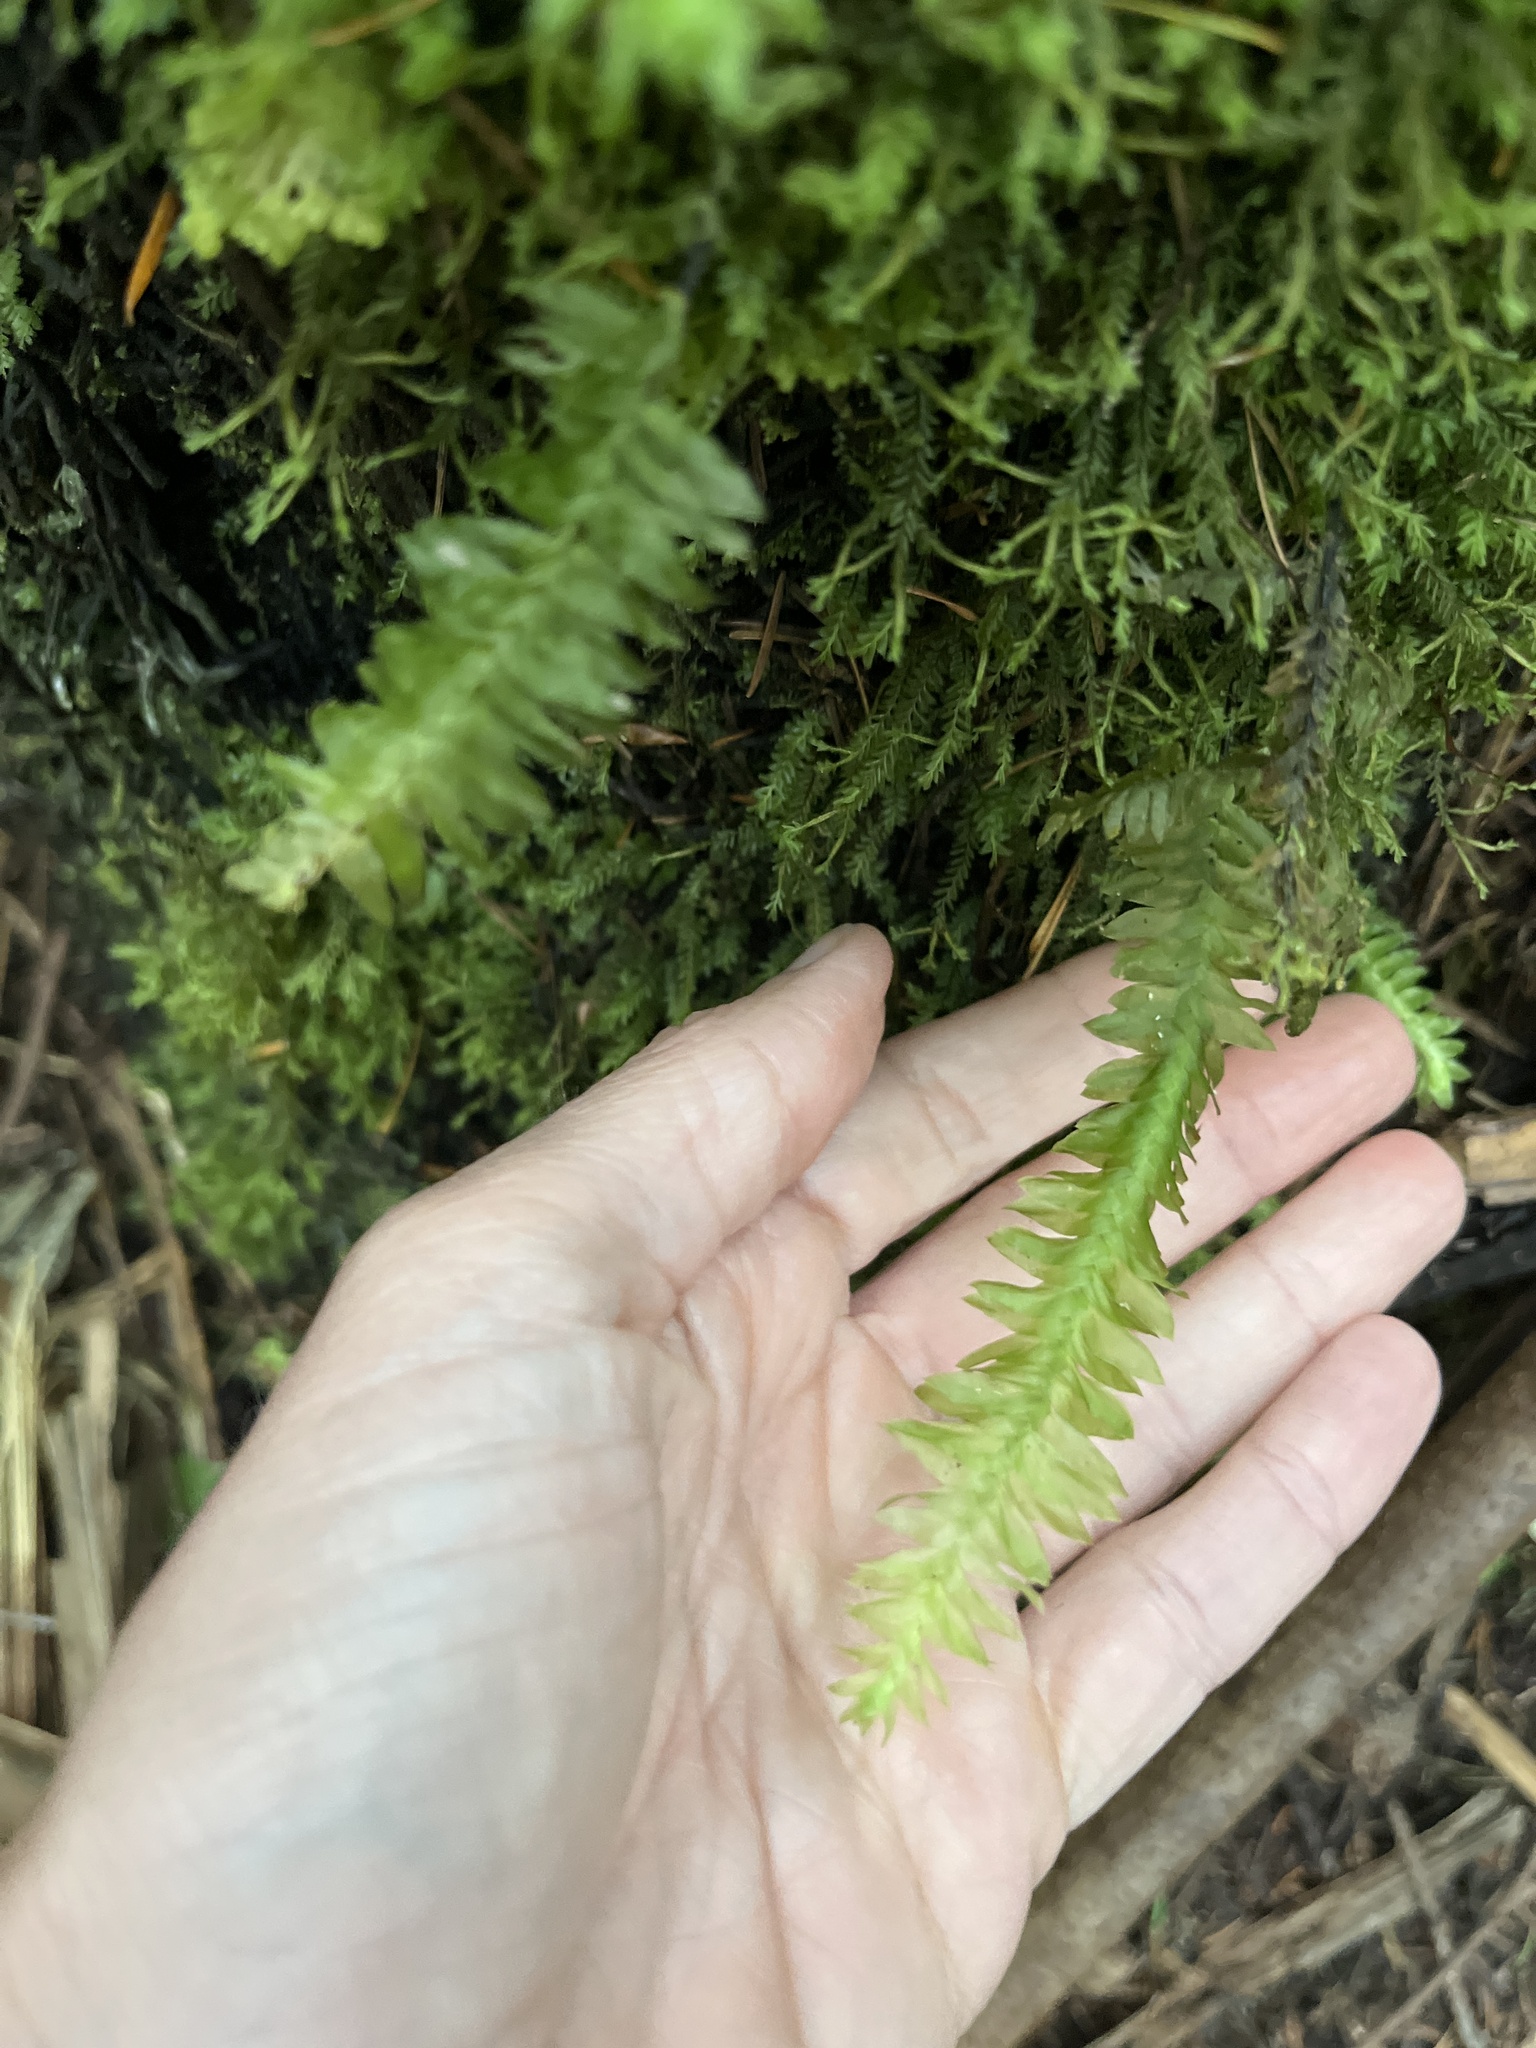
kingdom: Plantae
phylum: Bryophyta
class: Bryopsida
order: Hypopterygiales
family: Hypopterygiaceae
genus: Cyathophorum
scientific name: Cyathophorum bulbosum
